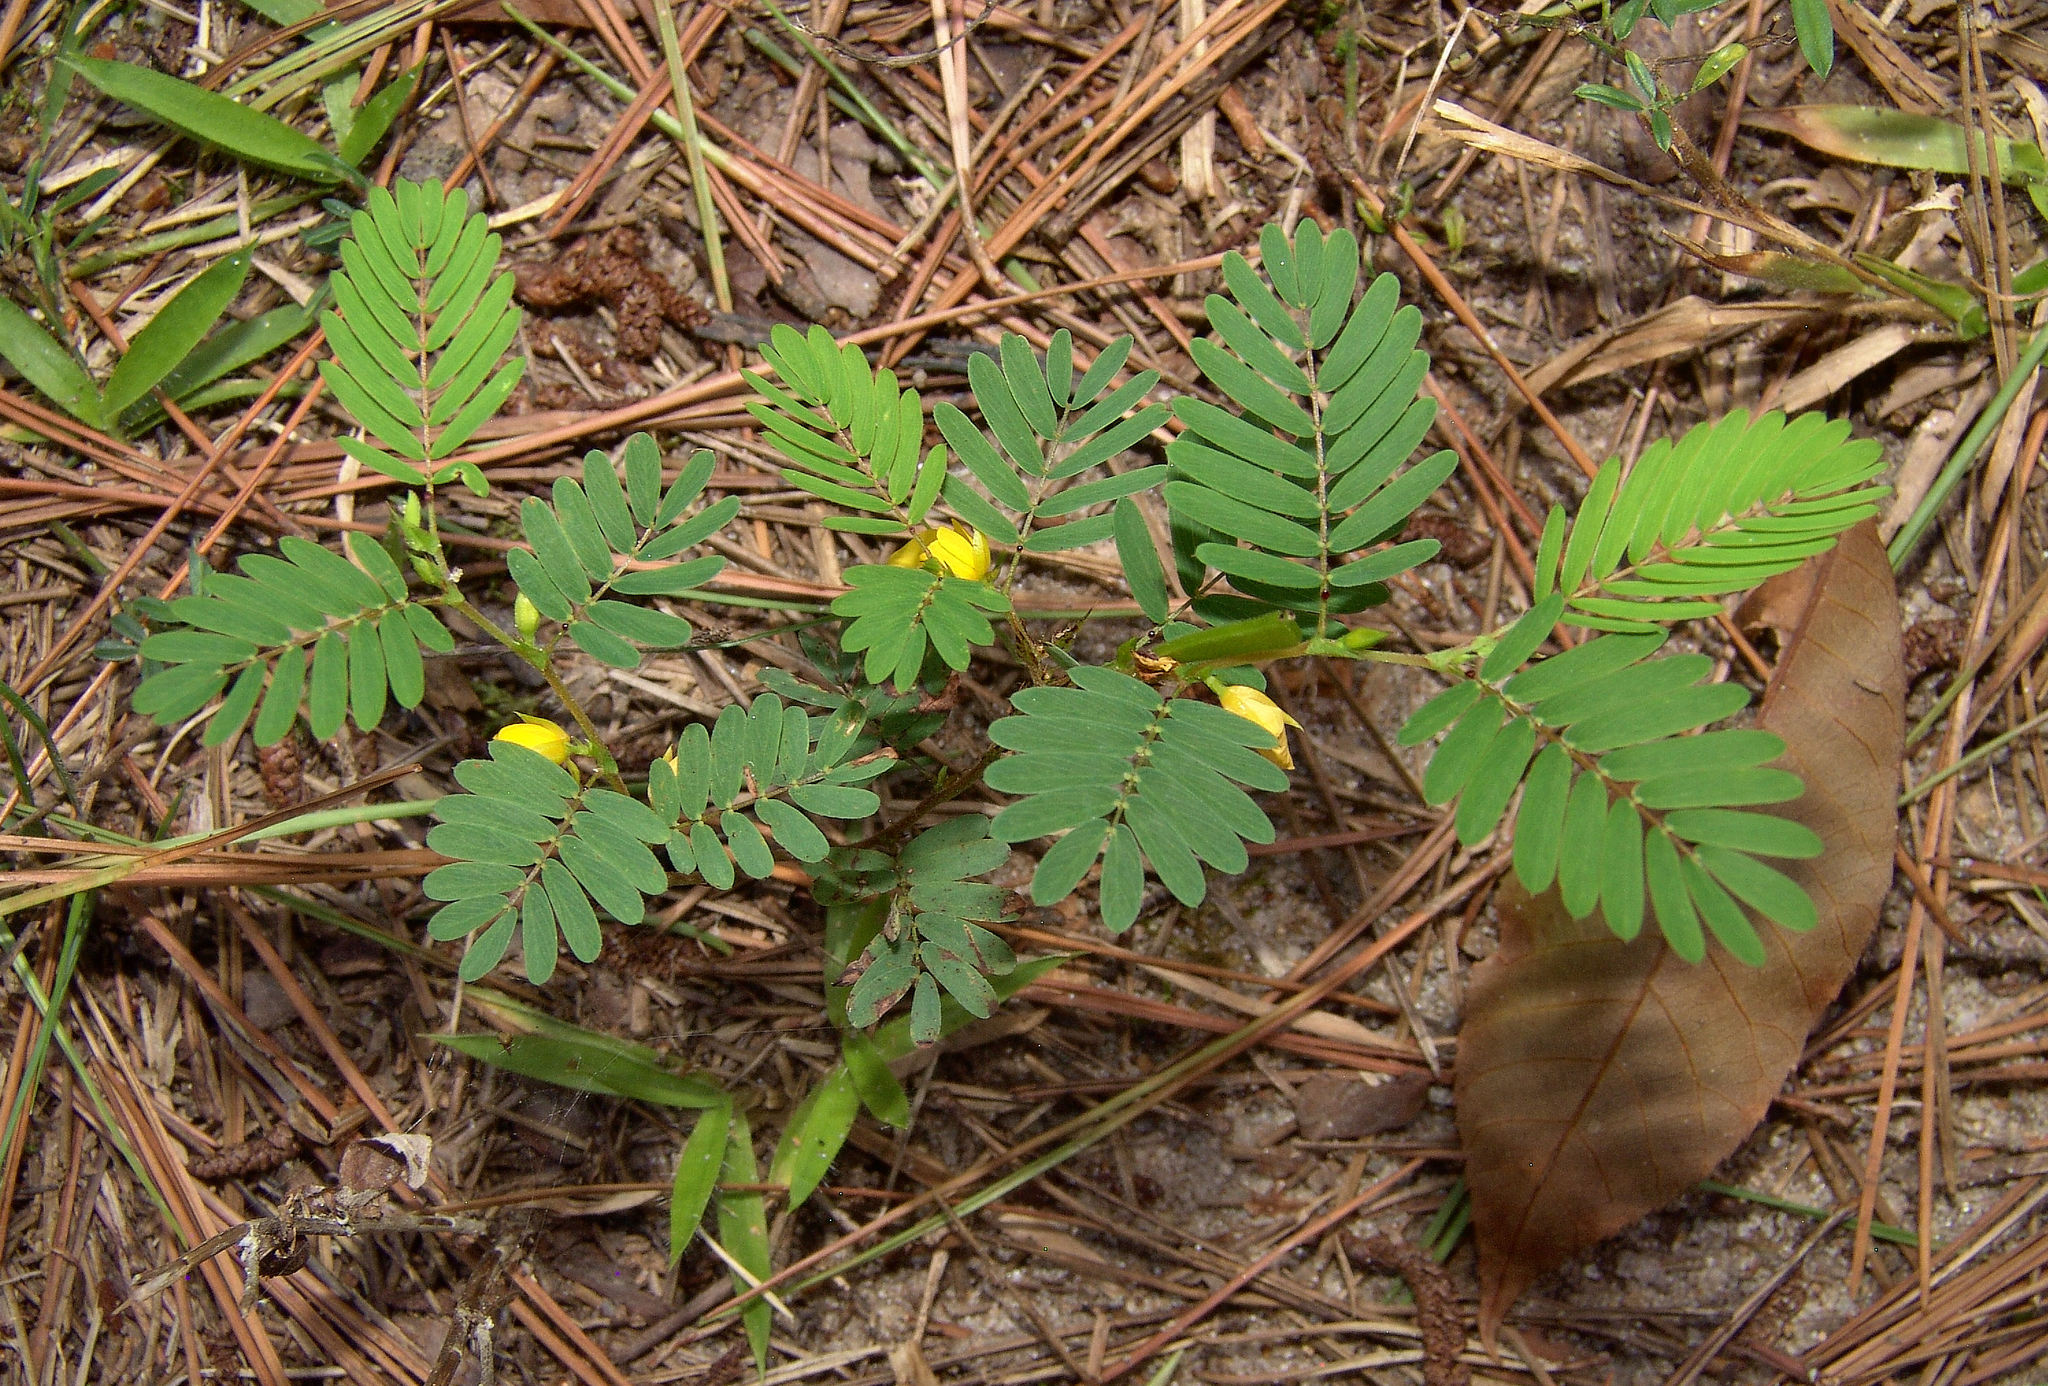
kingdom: Plantae
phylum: Tracheophyta
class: Magnoliopsida
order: Fabales
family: Fabaceae
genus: Chamaecrista
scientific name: Chamaecrista nictitans
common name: Sensitive cassia
